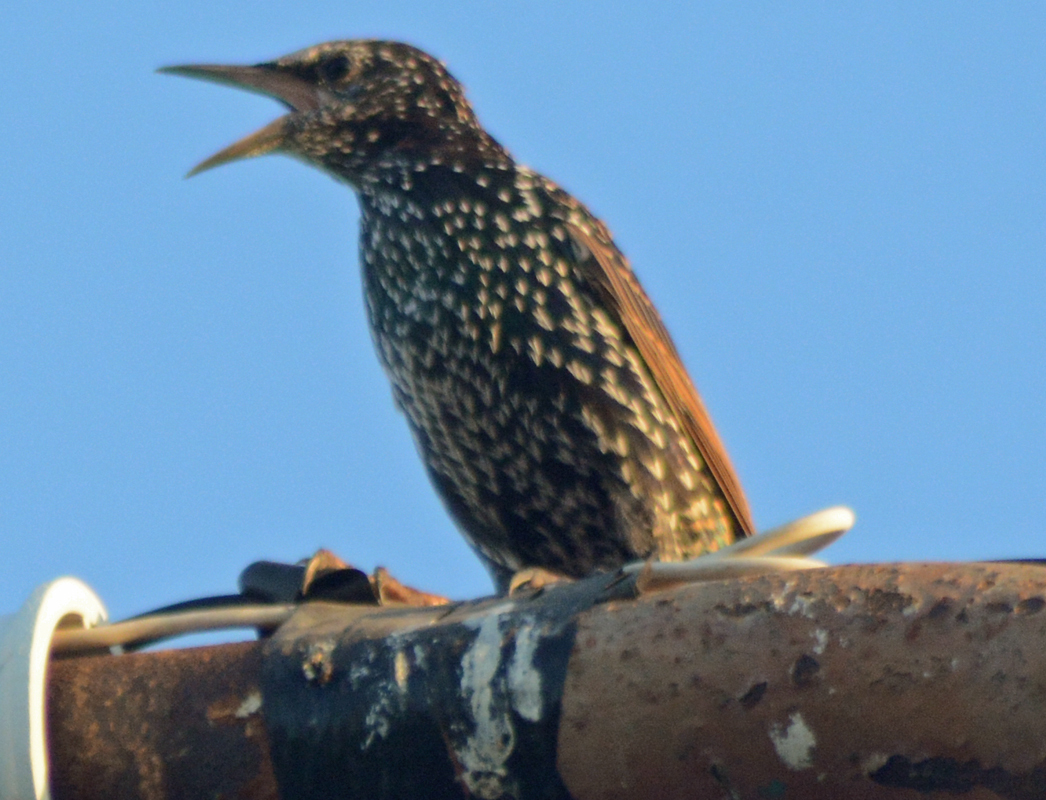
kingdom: Animalia
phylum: Chordata
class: Aves
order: Passeriformes
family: Sturnidae
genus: Sturnus
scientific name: Sturnus vulgaris
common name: Common starling
